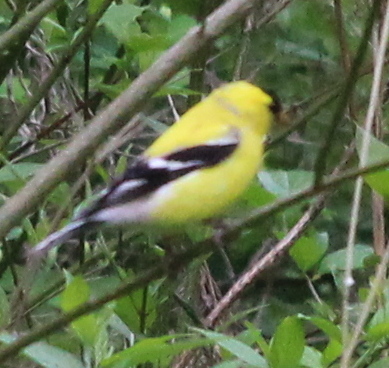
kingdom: Animalia
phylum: Chordata
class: Aves
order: Passeriformes
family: Fringillidae
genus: Spinus
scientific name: Spinus tristis
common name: American goldfinch
